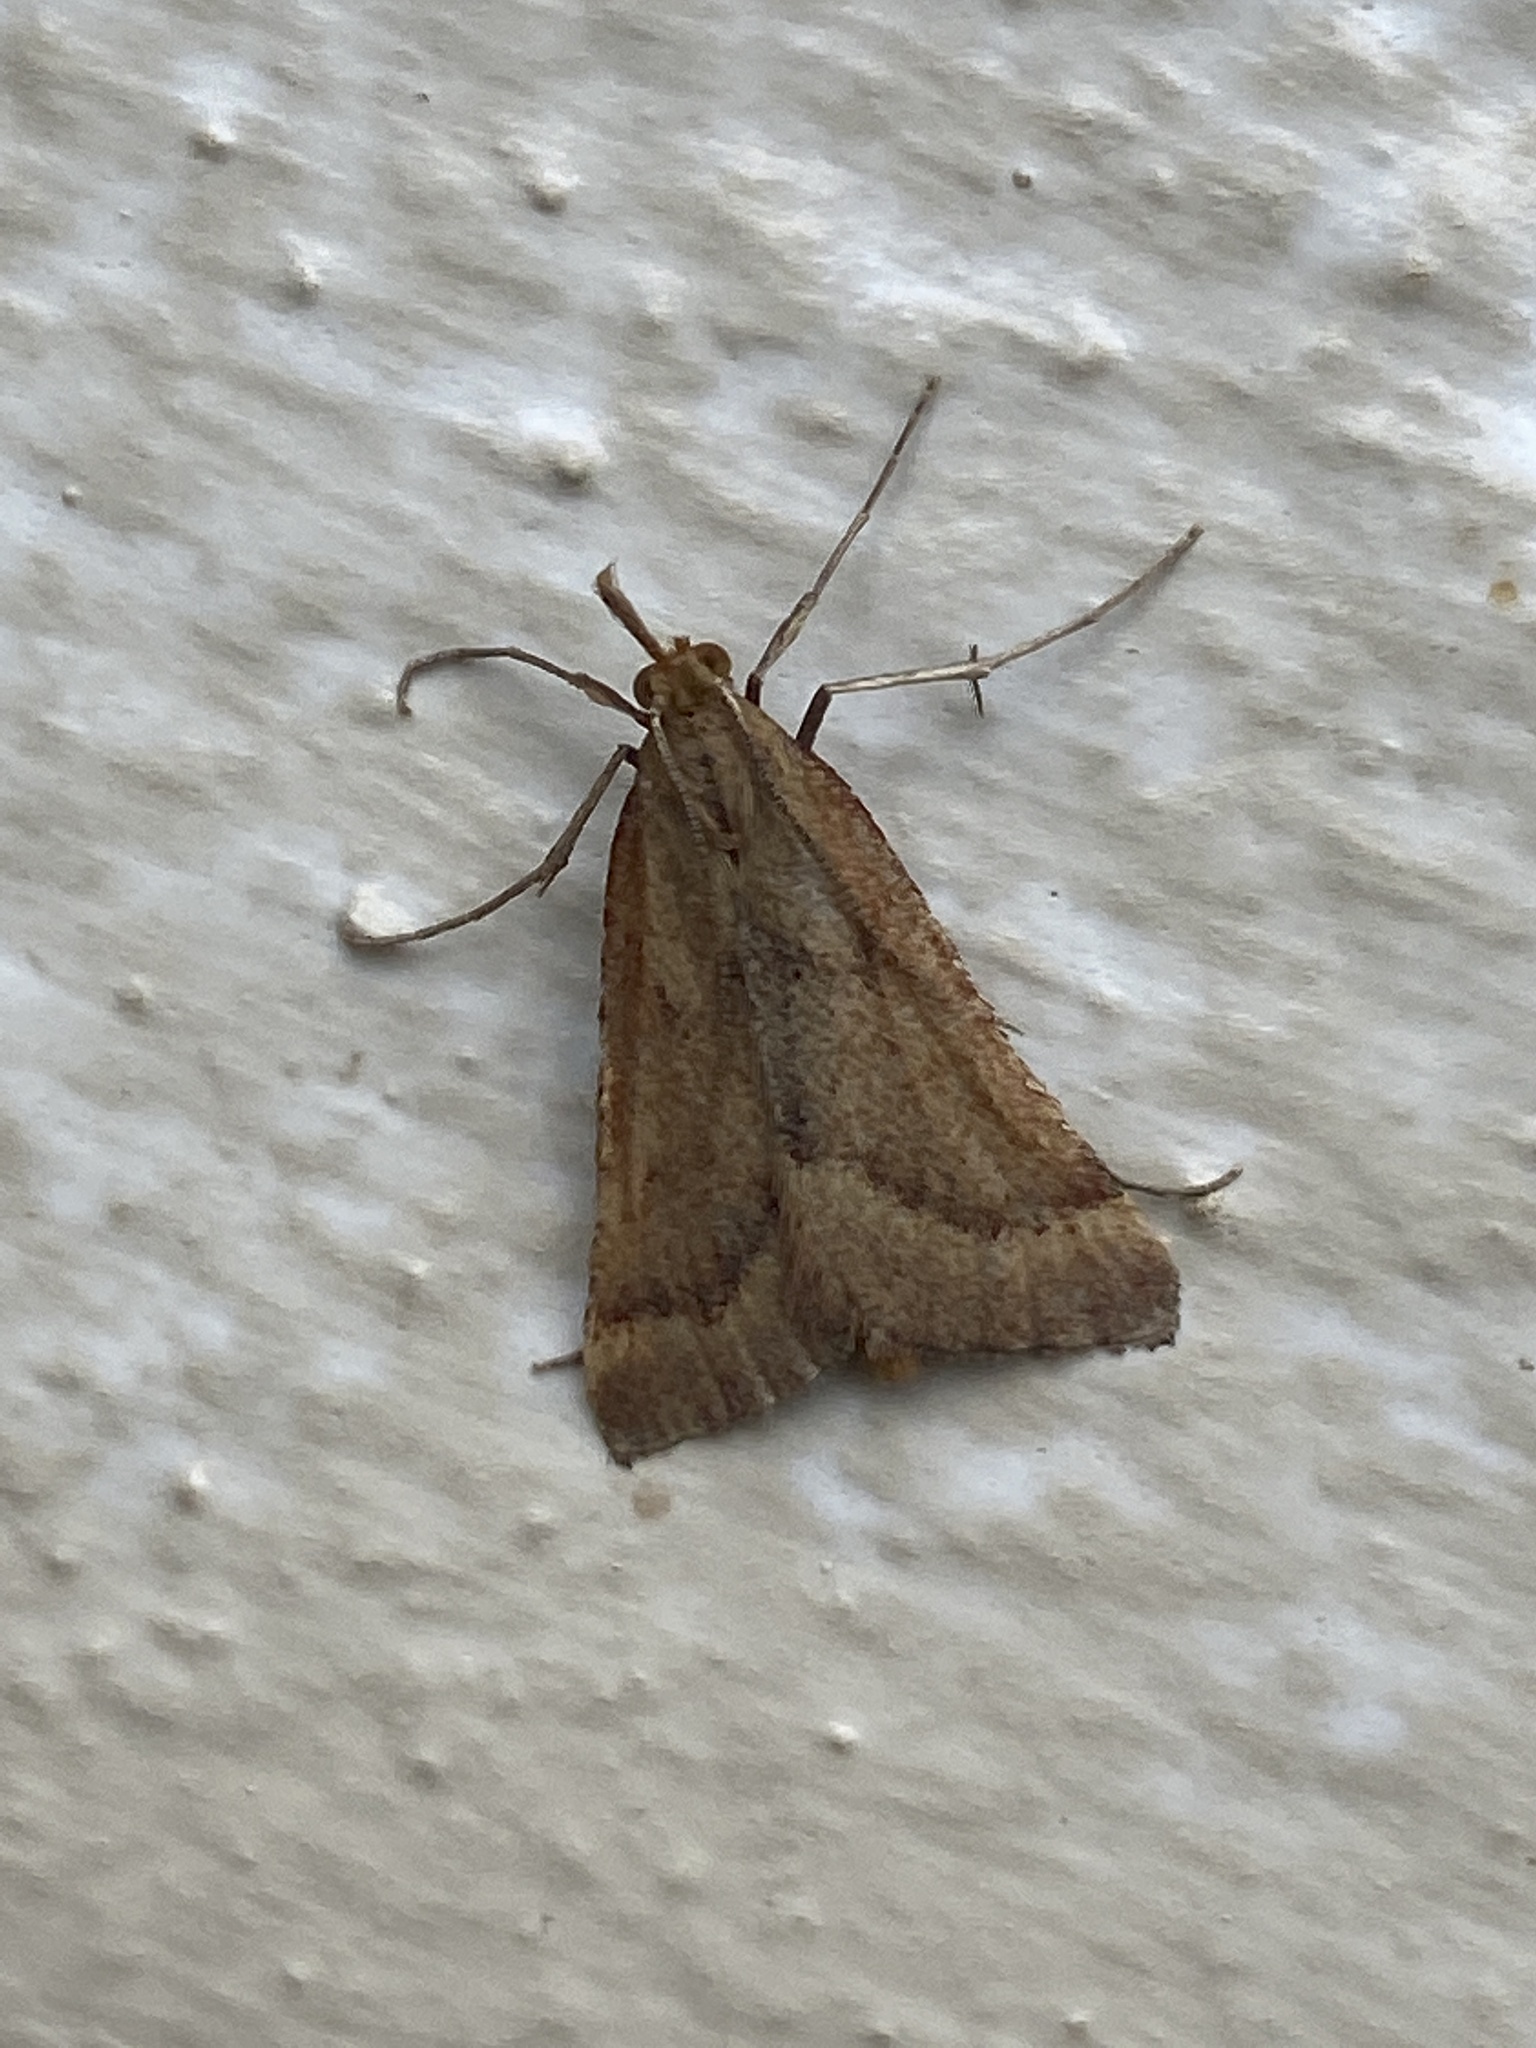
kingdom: Animalia
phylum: Arthropoda
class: Insecta
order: Lepidoptera
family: Pyralidae
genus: Synaphe
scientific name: Synaphe punctalis
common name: Long-legged tabby
